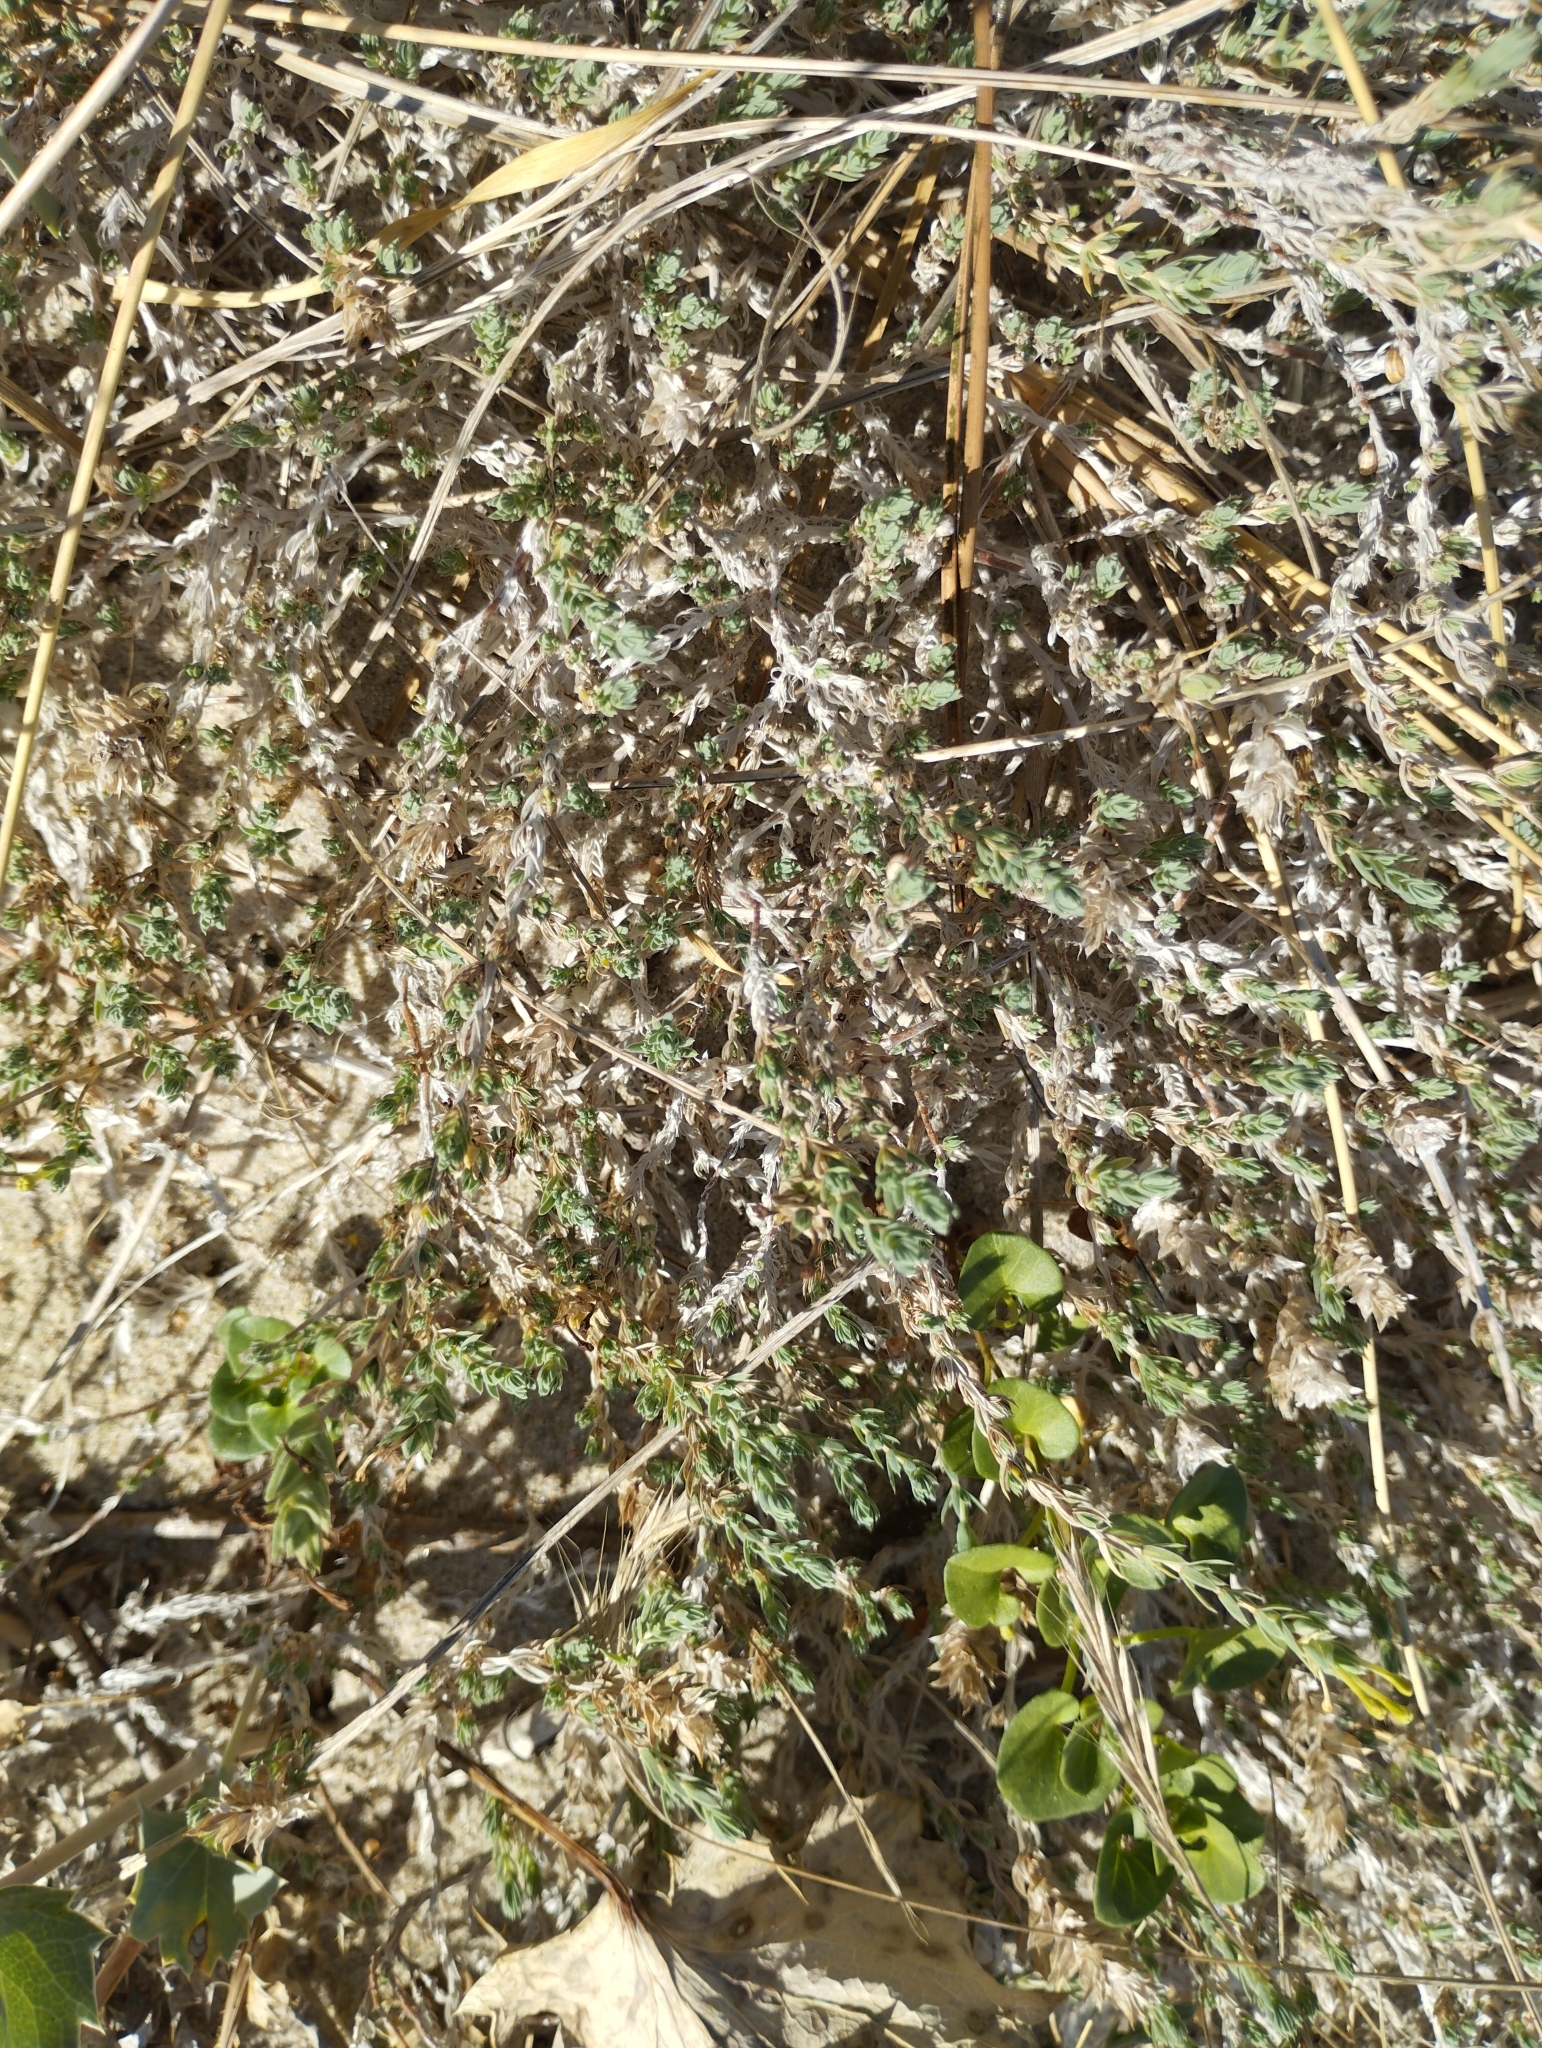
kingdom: Plantae
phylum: Tracheophyta
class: Magnoliopsida
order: Gentianales
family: Rubiaceae
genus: Crucianella
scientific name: Crucianella maritima
